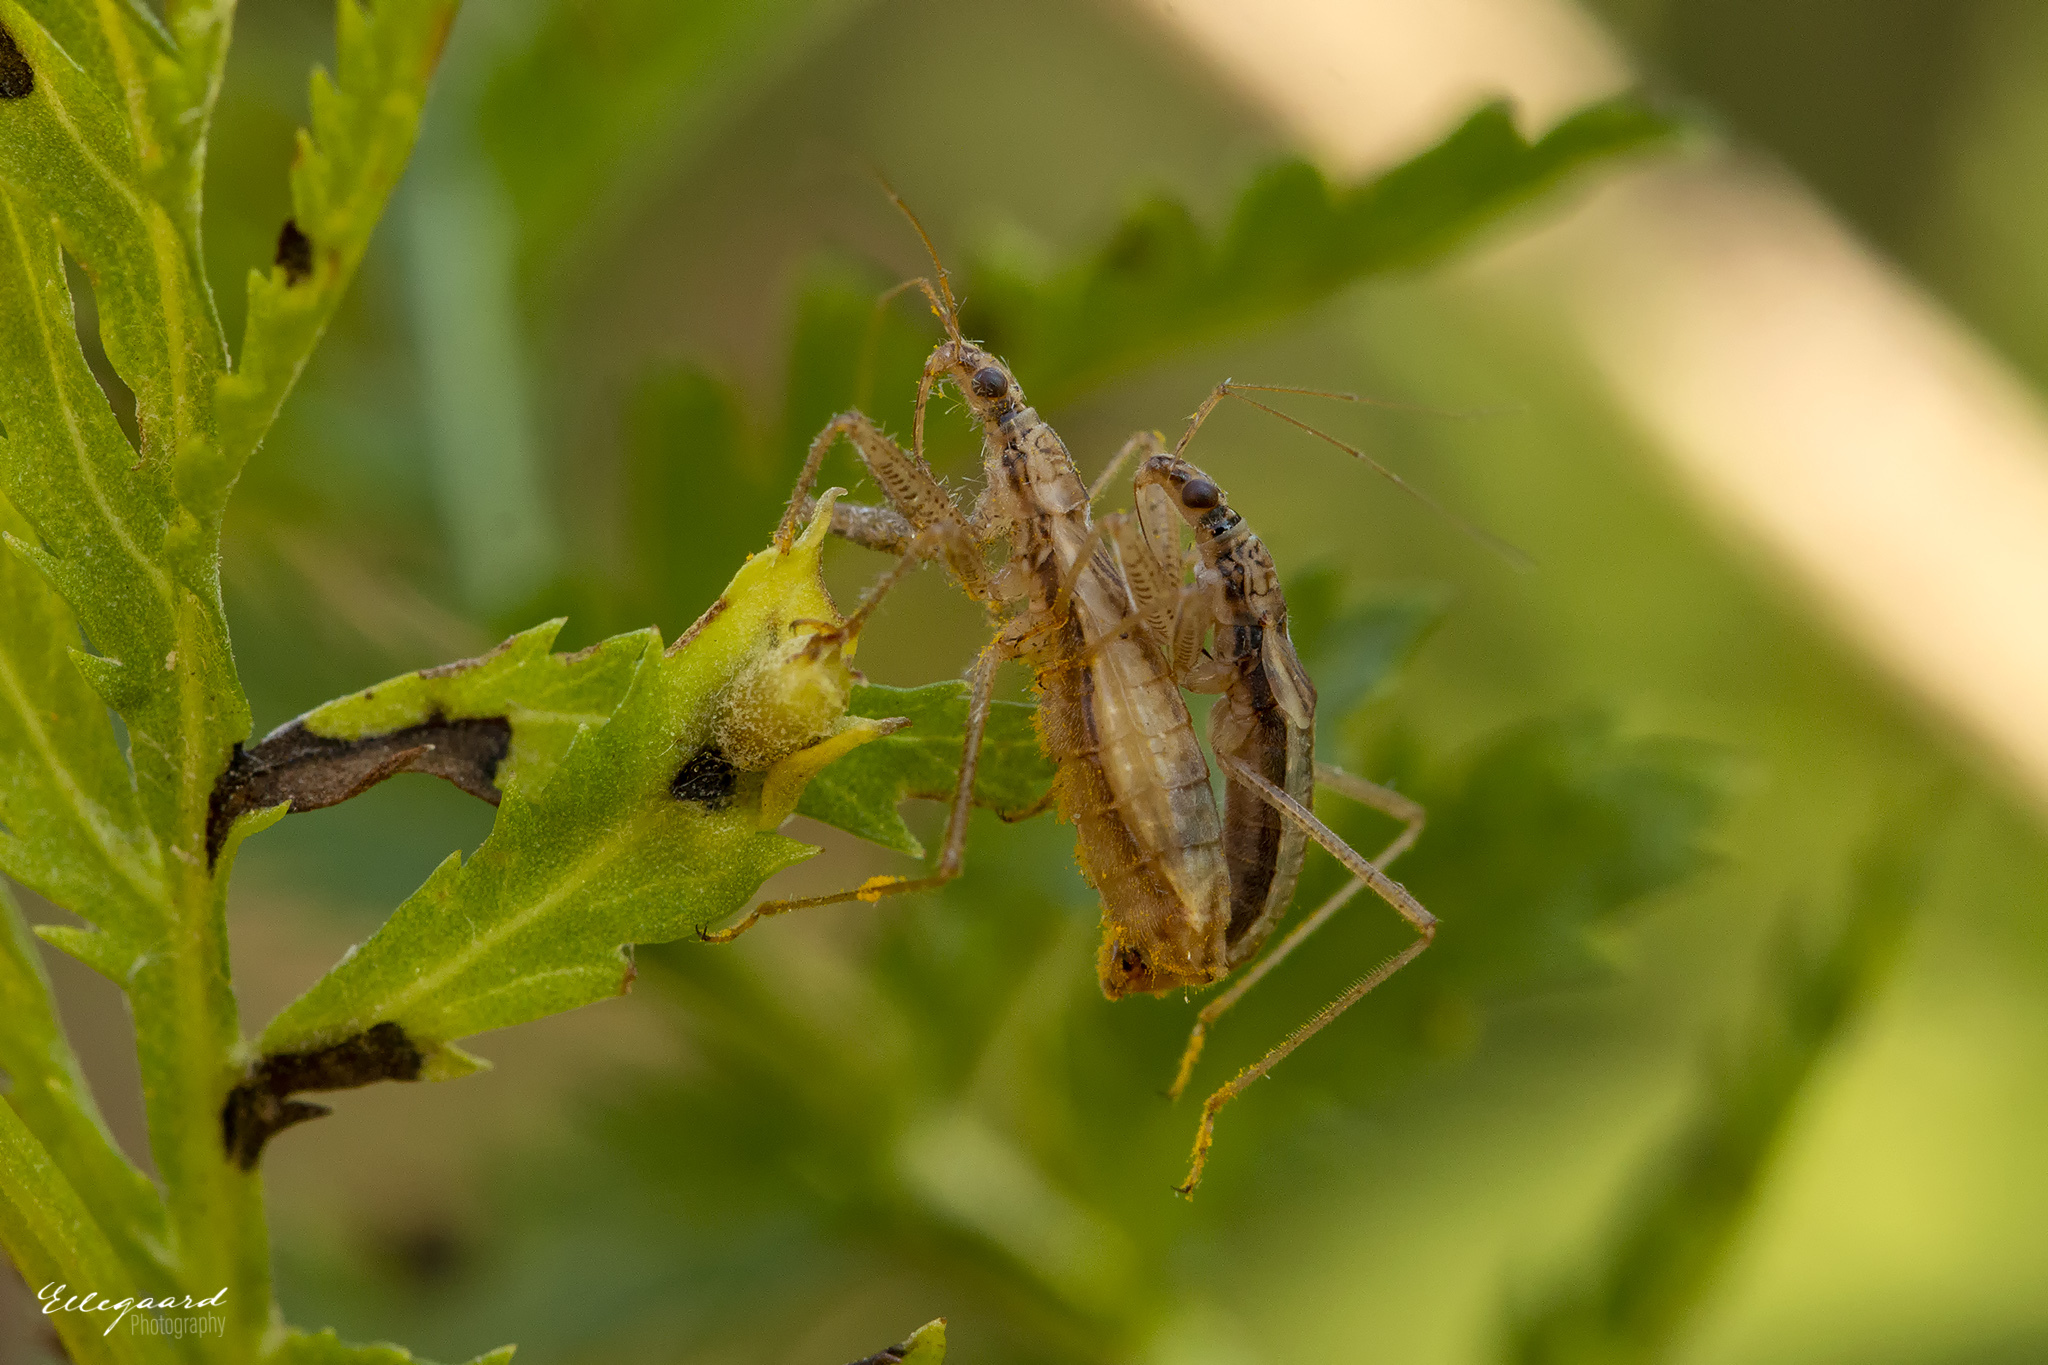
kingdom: Animalia
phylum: Arthropoda
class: Insecta
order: Hemiptera
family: Nabidae
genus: Nabis
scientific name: Nabis limbatus
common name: Marsh damselbug
